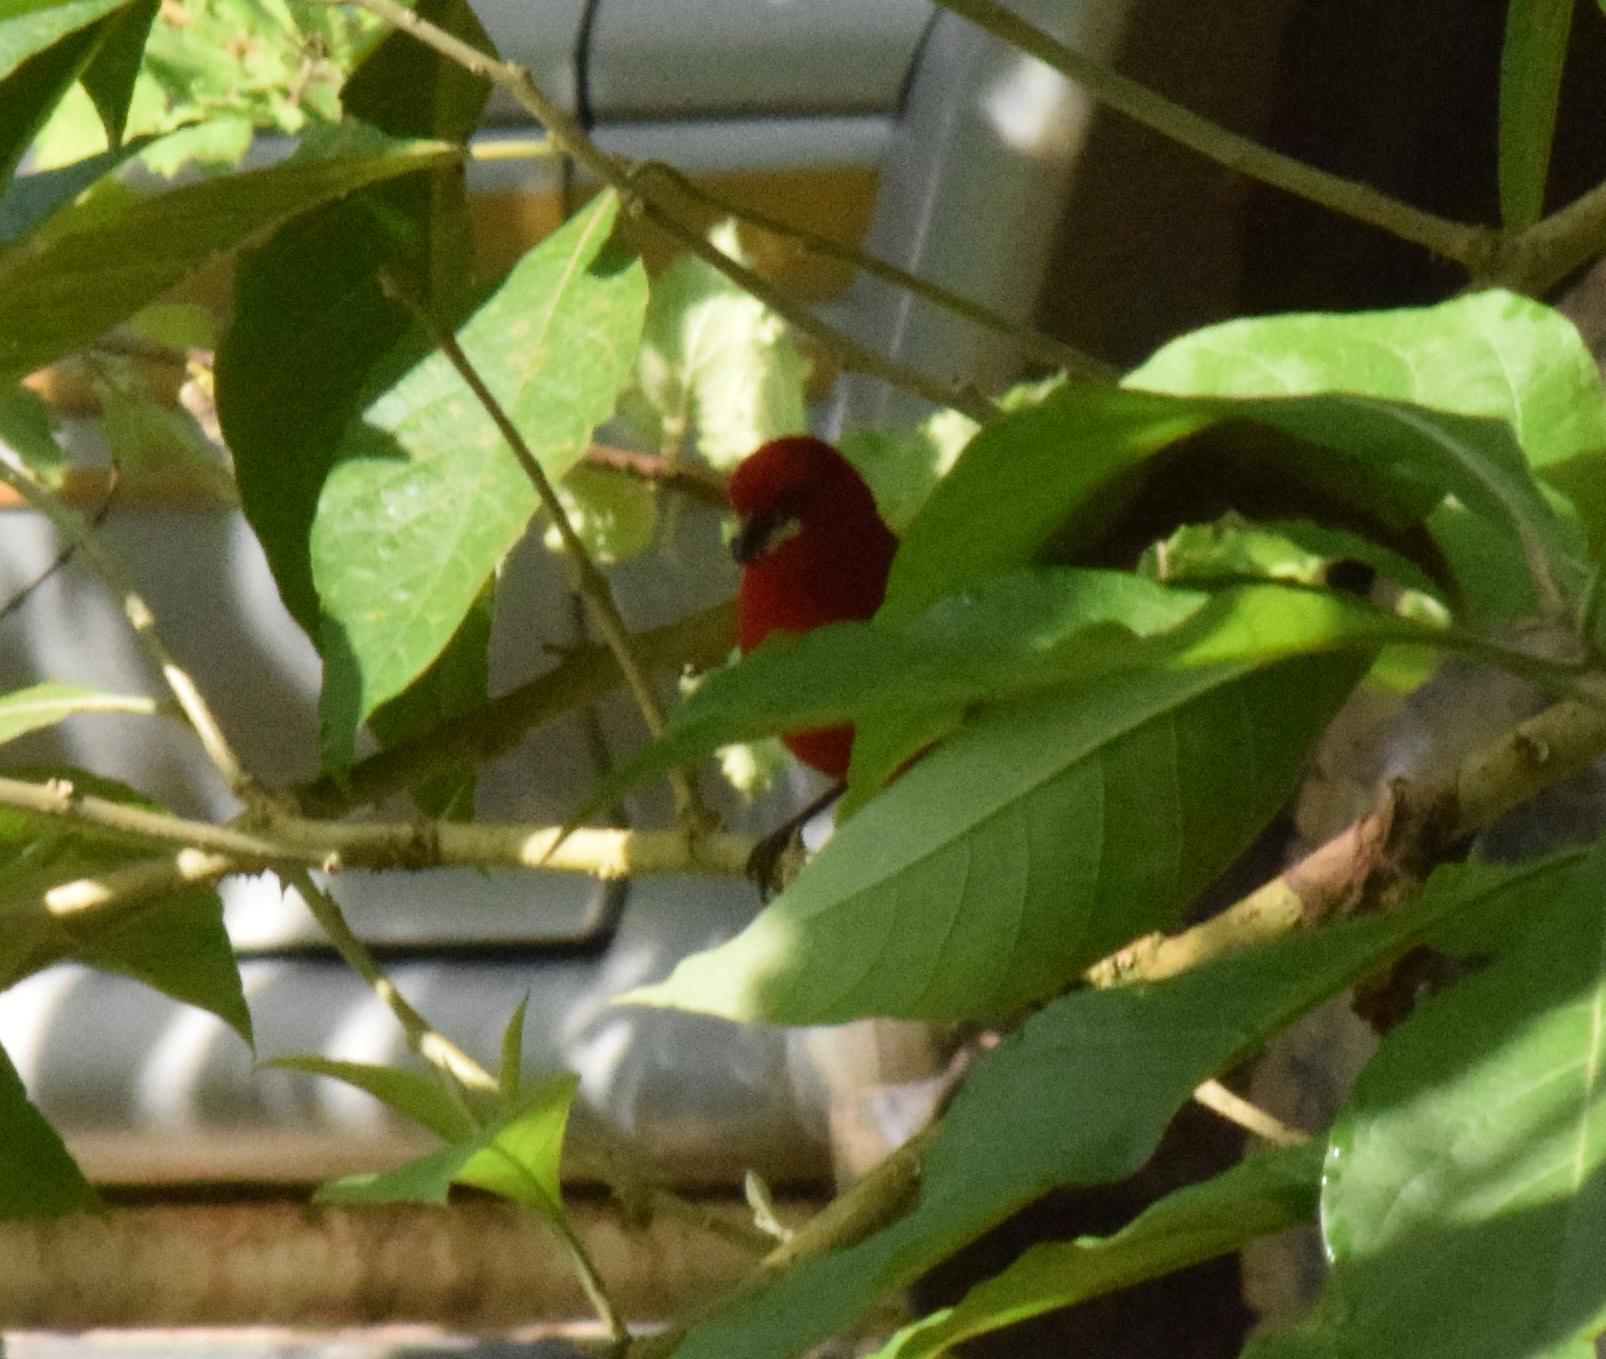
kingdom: Animalia
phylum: Chordata
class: Aves
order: Passeriformes
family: Thraupidae
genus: Ramphocelus
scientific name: Ramphocelus bresilia
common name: Brazilian tanager
